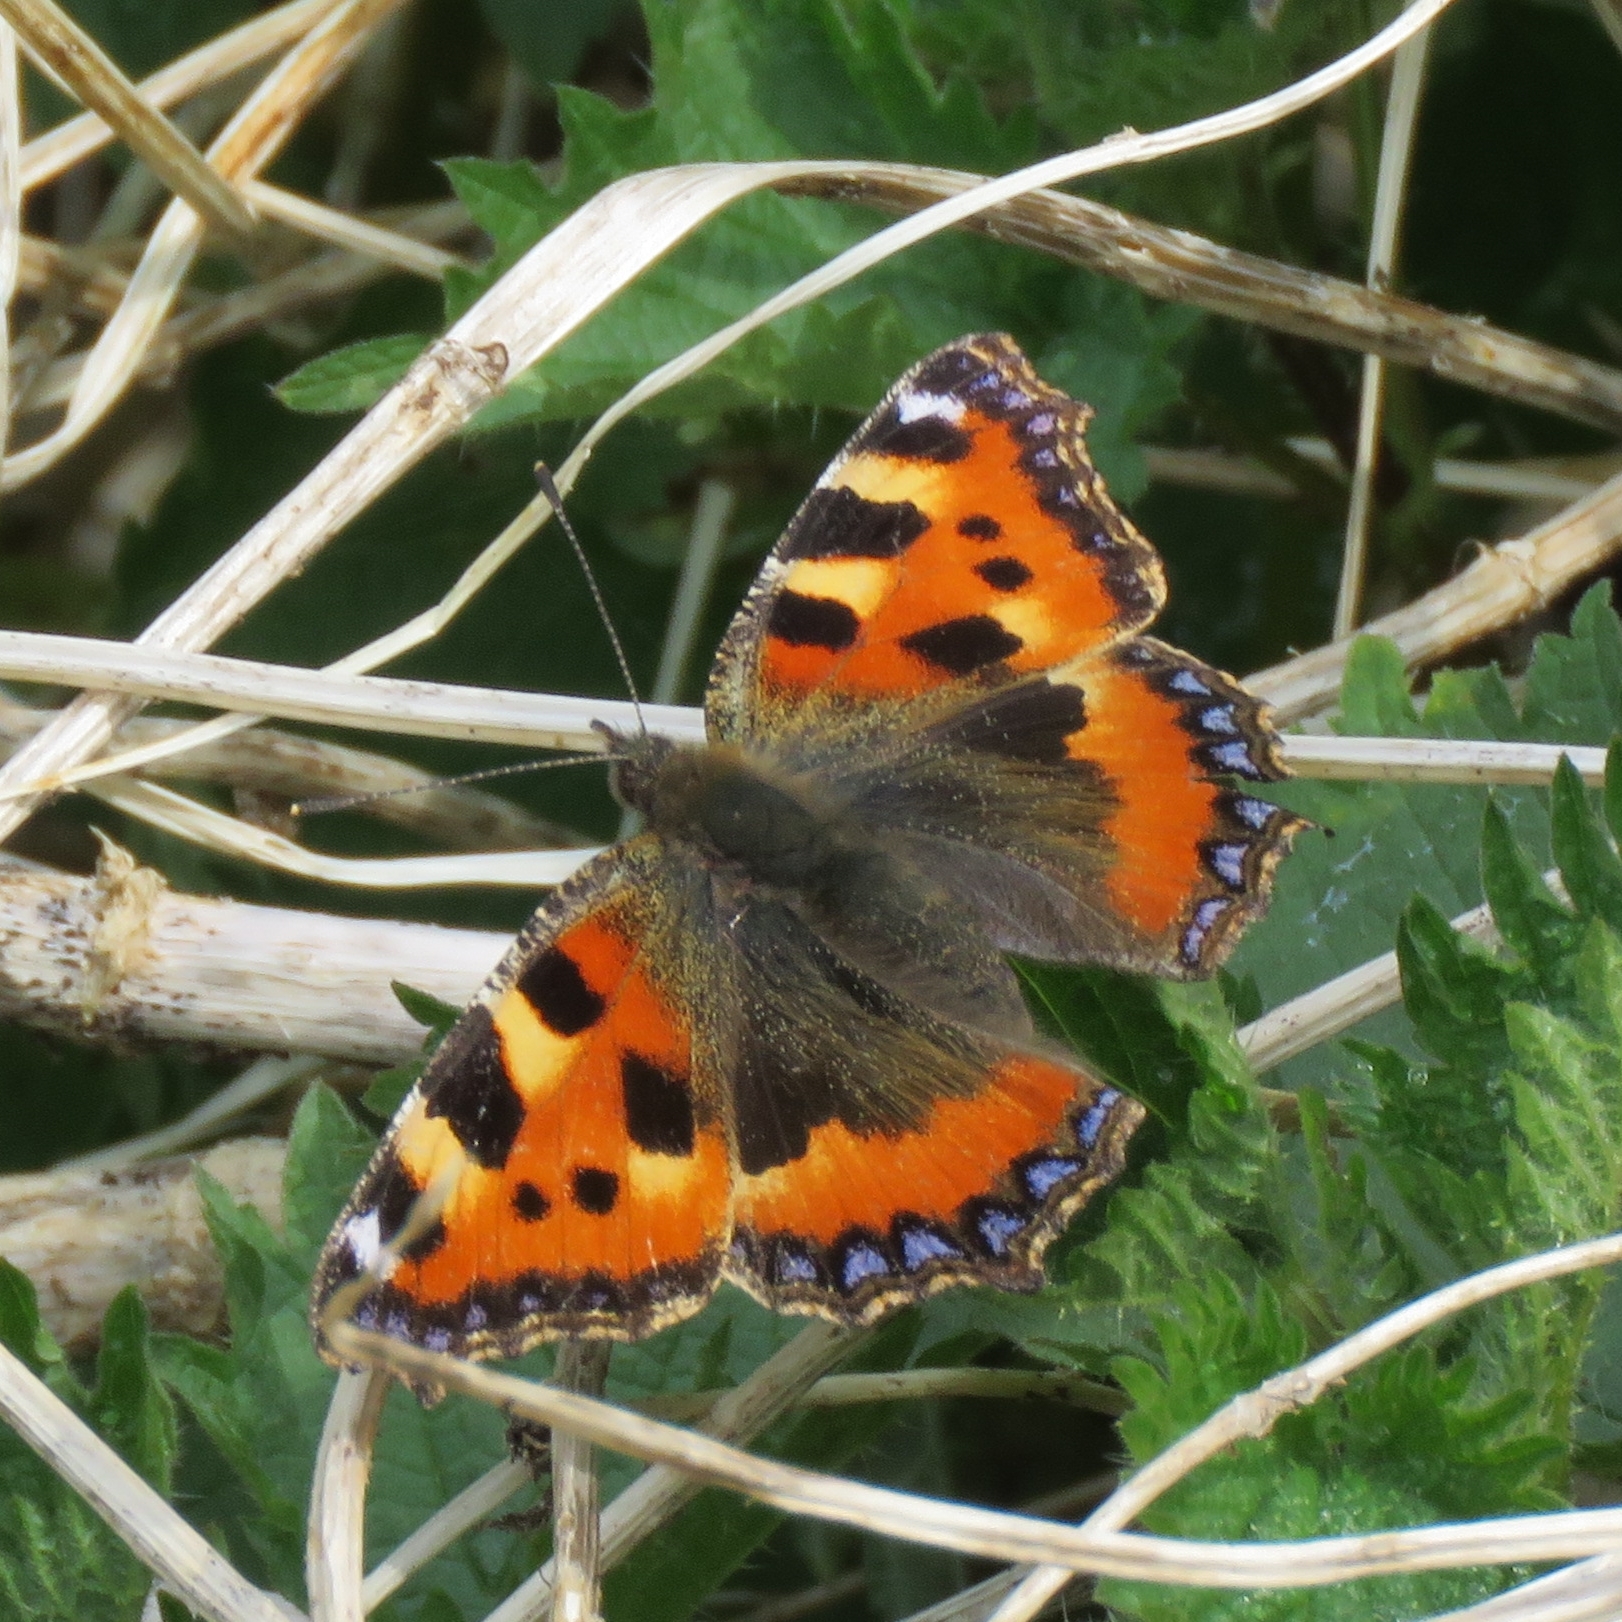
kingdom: Animalia
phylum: Arthropoda
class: Insecta
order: Lepidoptera
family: Nymphalidae
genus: Aglais
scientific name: Aglais urticae
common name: Small tortoiseshell
